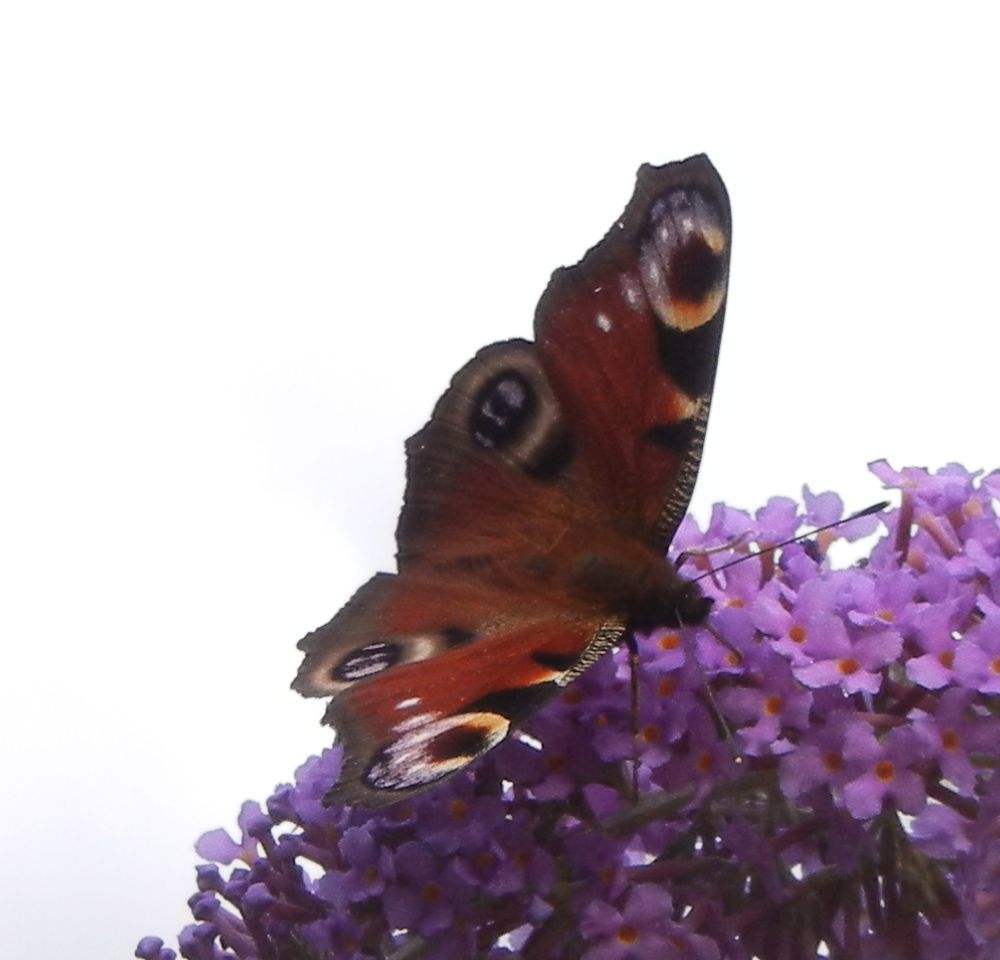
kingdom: Animalia
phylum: Arthropoda
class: Insecta
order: Lepidoptera
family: Nymphalidae
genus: Aglais
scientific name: Aglais io
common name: Peacock
